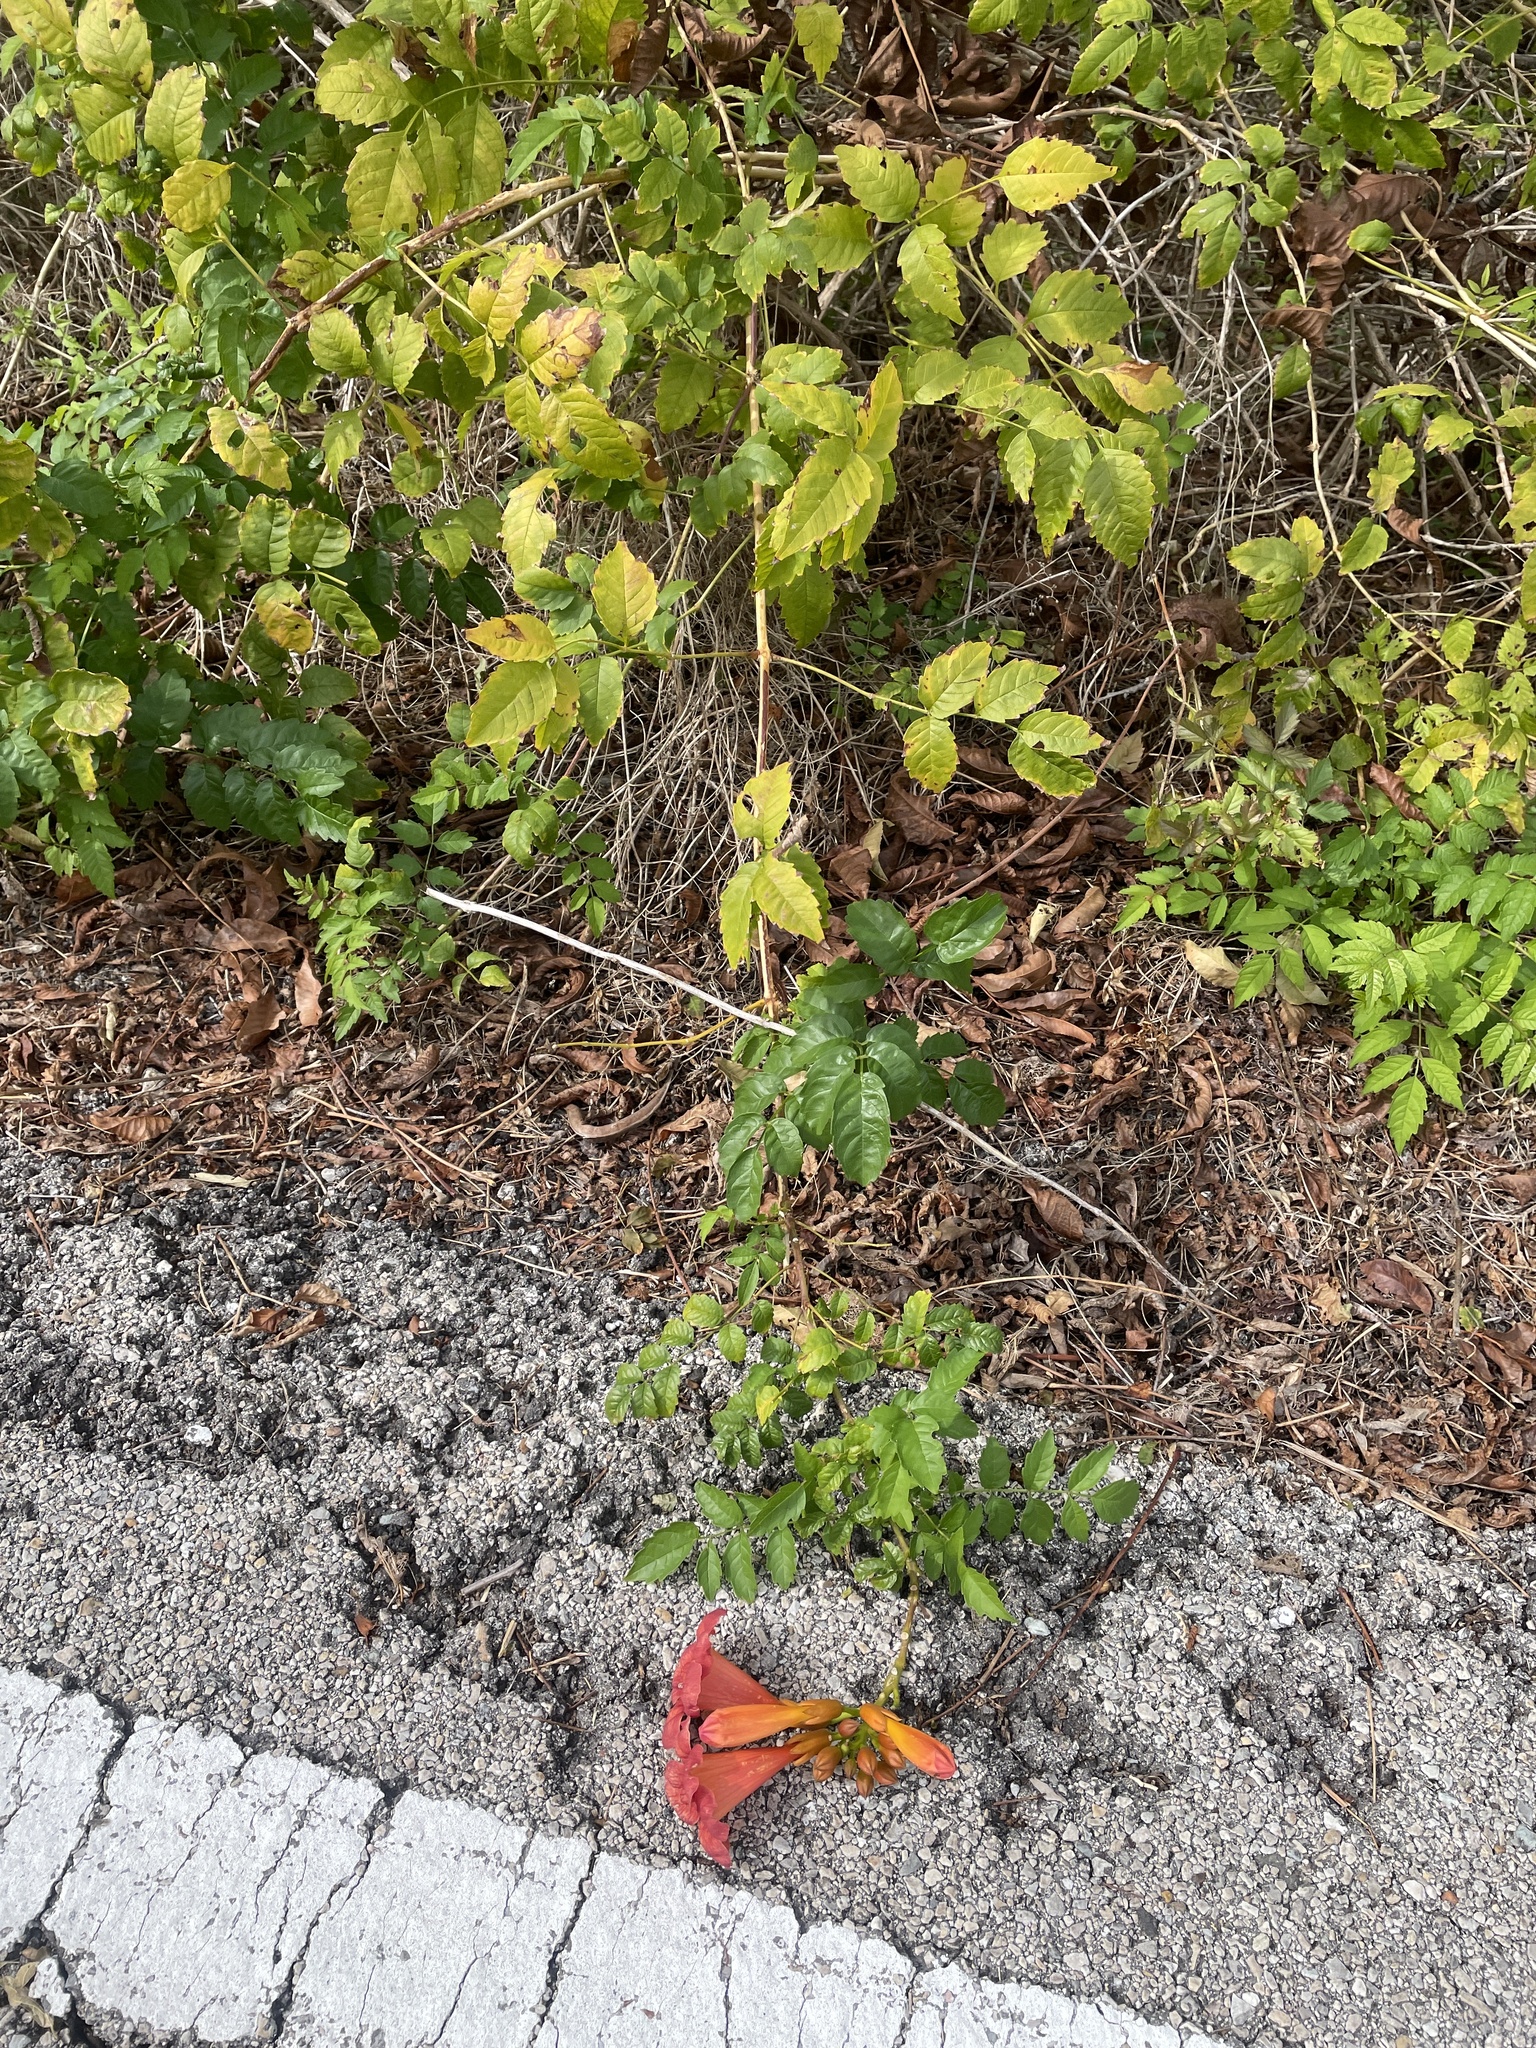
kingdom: Plantae
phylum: Tracheophyta
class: Magnoliopsida
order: Lamiales
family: Bignoniaceae
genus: Campsis
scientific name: Campsis radicans
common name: Trumpet-creeper
